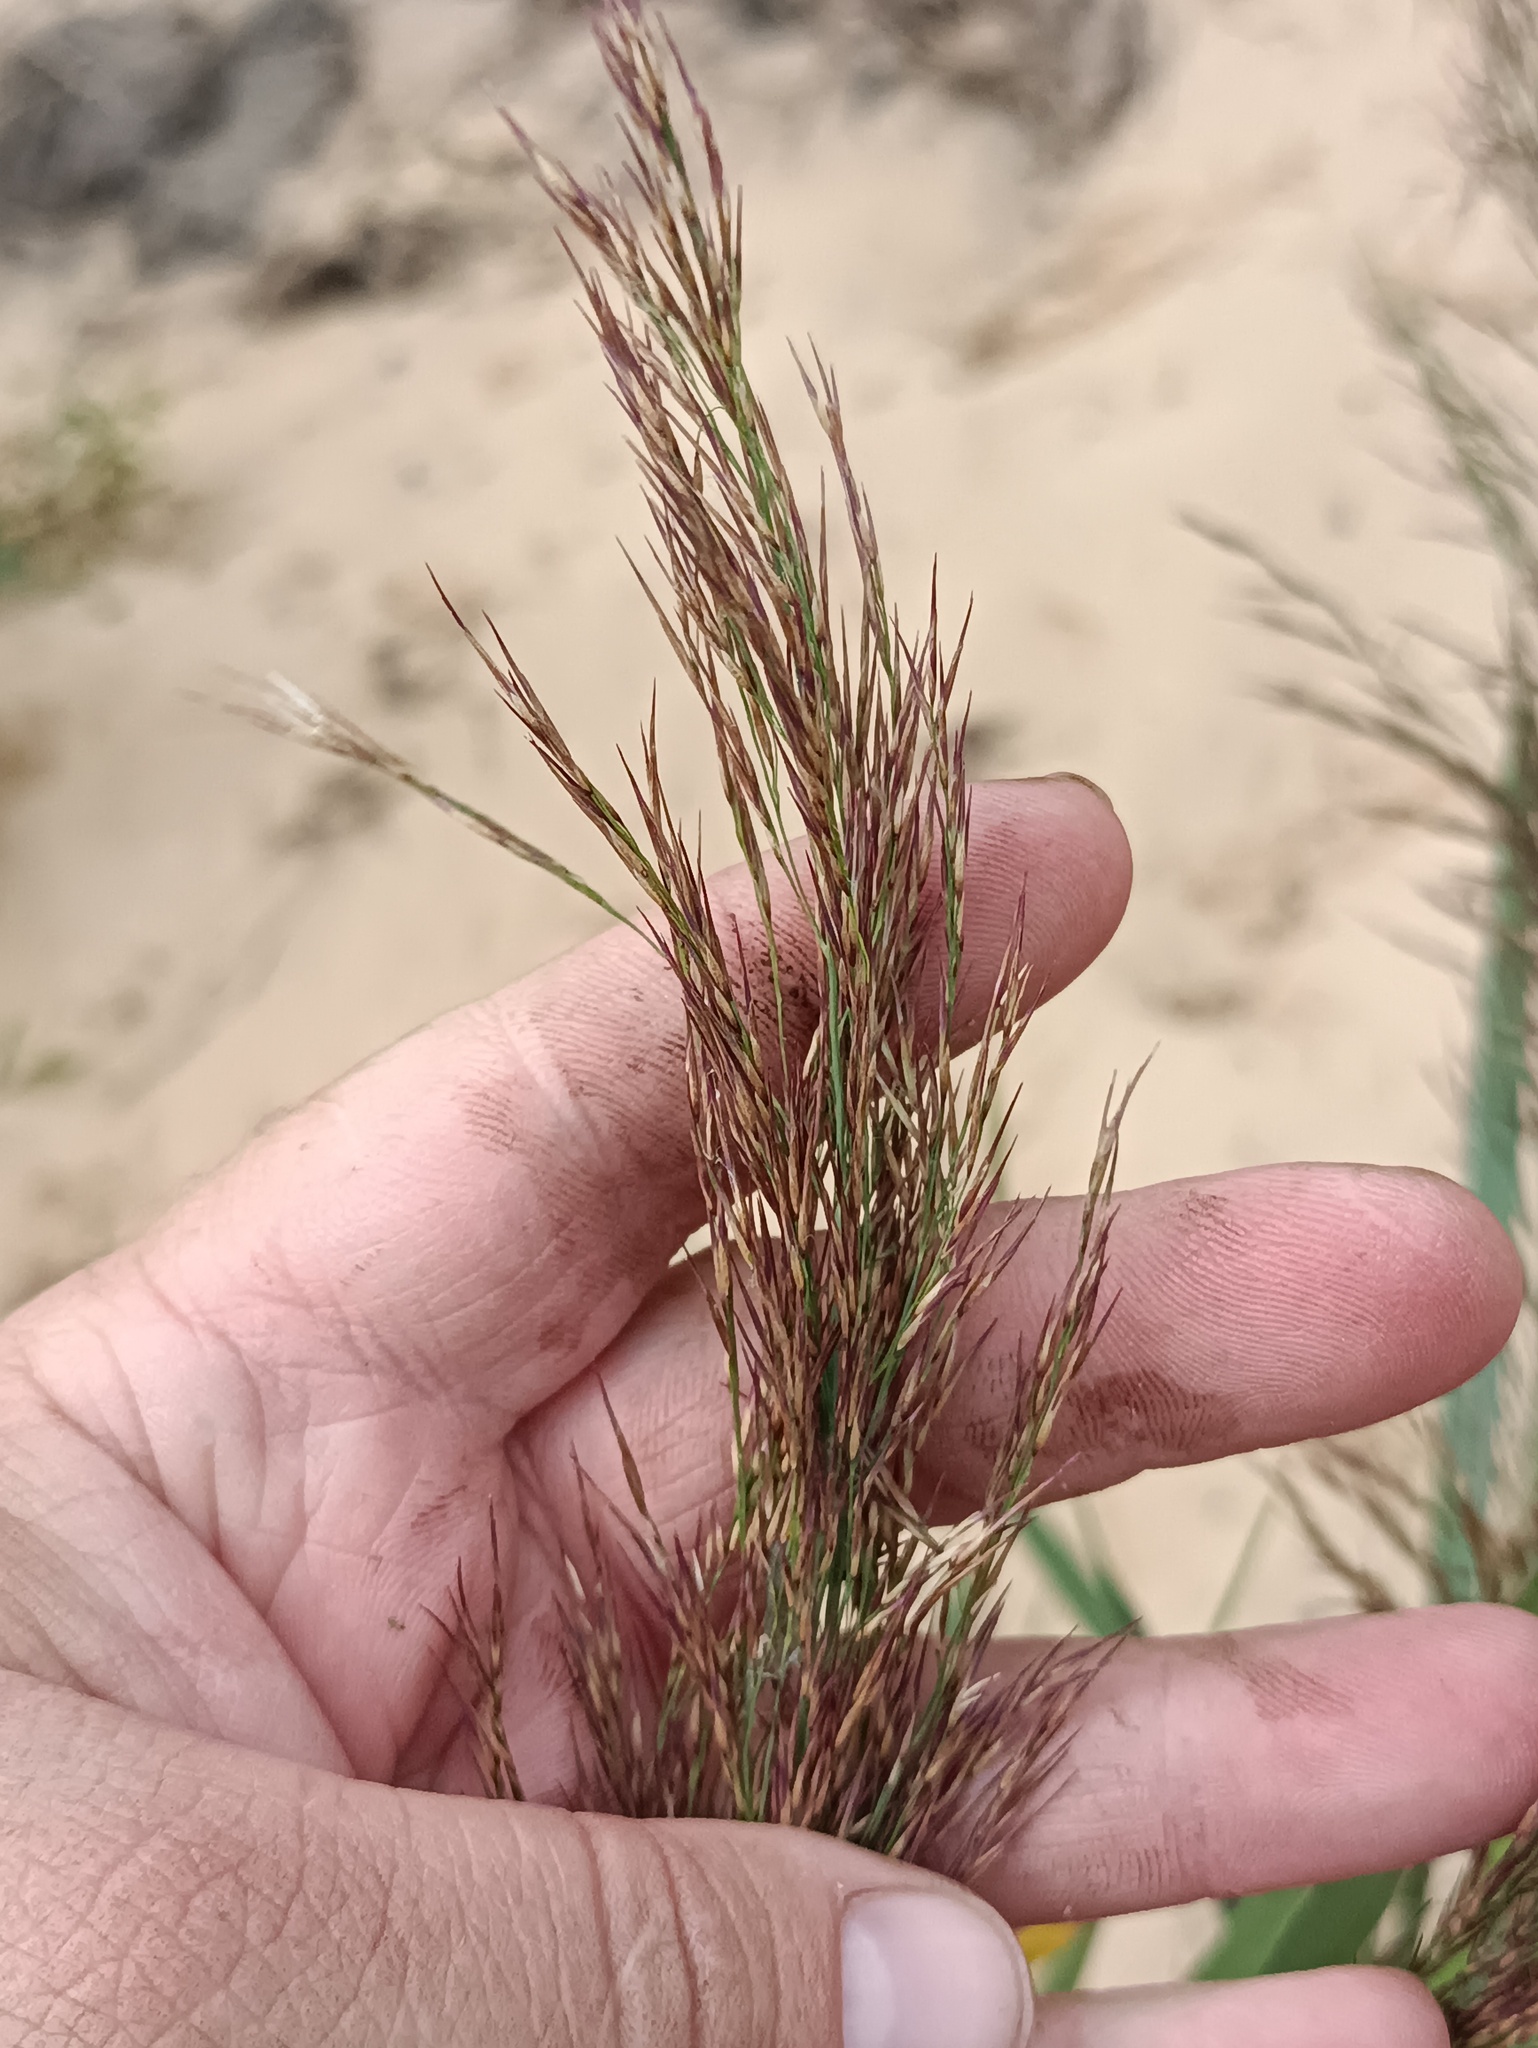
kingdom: Plantae
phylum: Tracheophyta
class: Liliopsida
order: Poales
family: Poaceae
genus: Phragmites
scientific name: Phragmites australis
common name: Common reed
